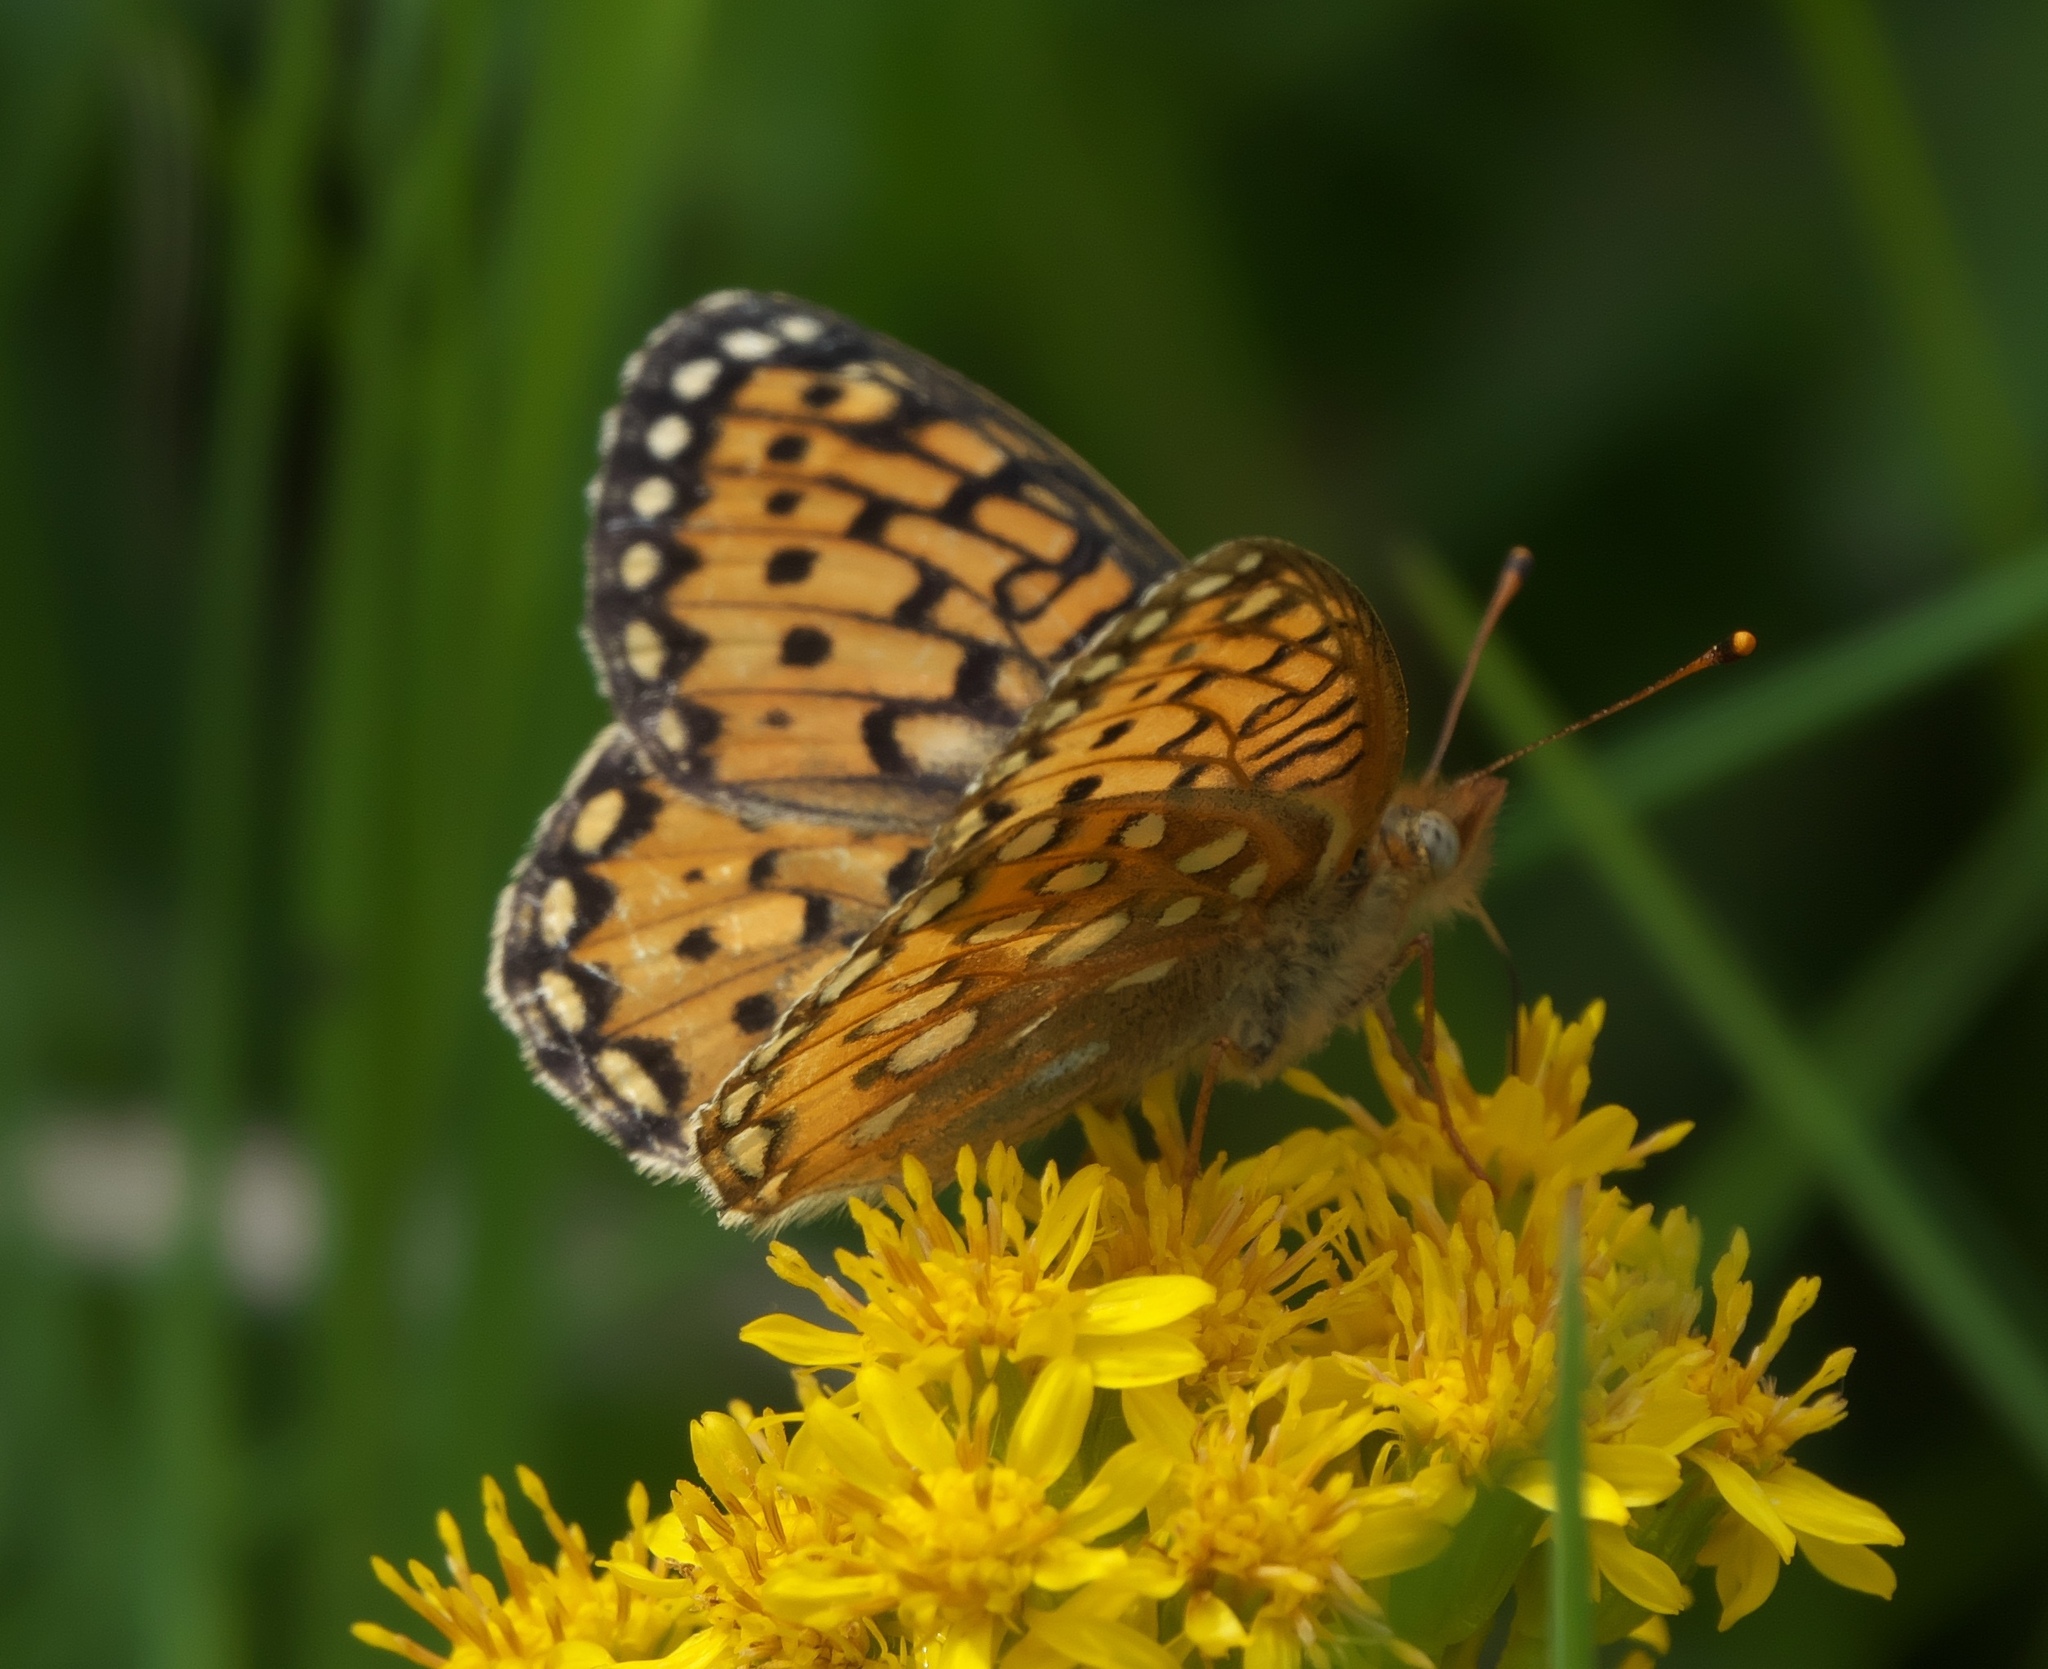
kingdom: Animalia
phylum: Arthropoda
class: Insecta
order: Lepidoptera
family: Nymphalidae
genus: Speyeria
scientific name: Speyeria mormonia
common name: Mormon fritillary
